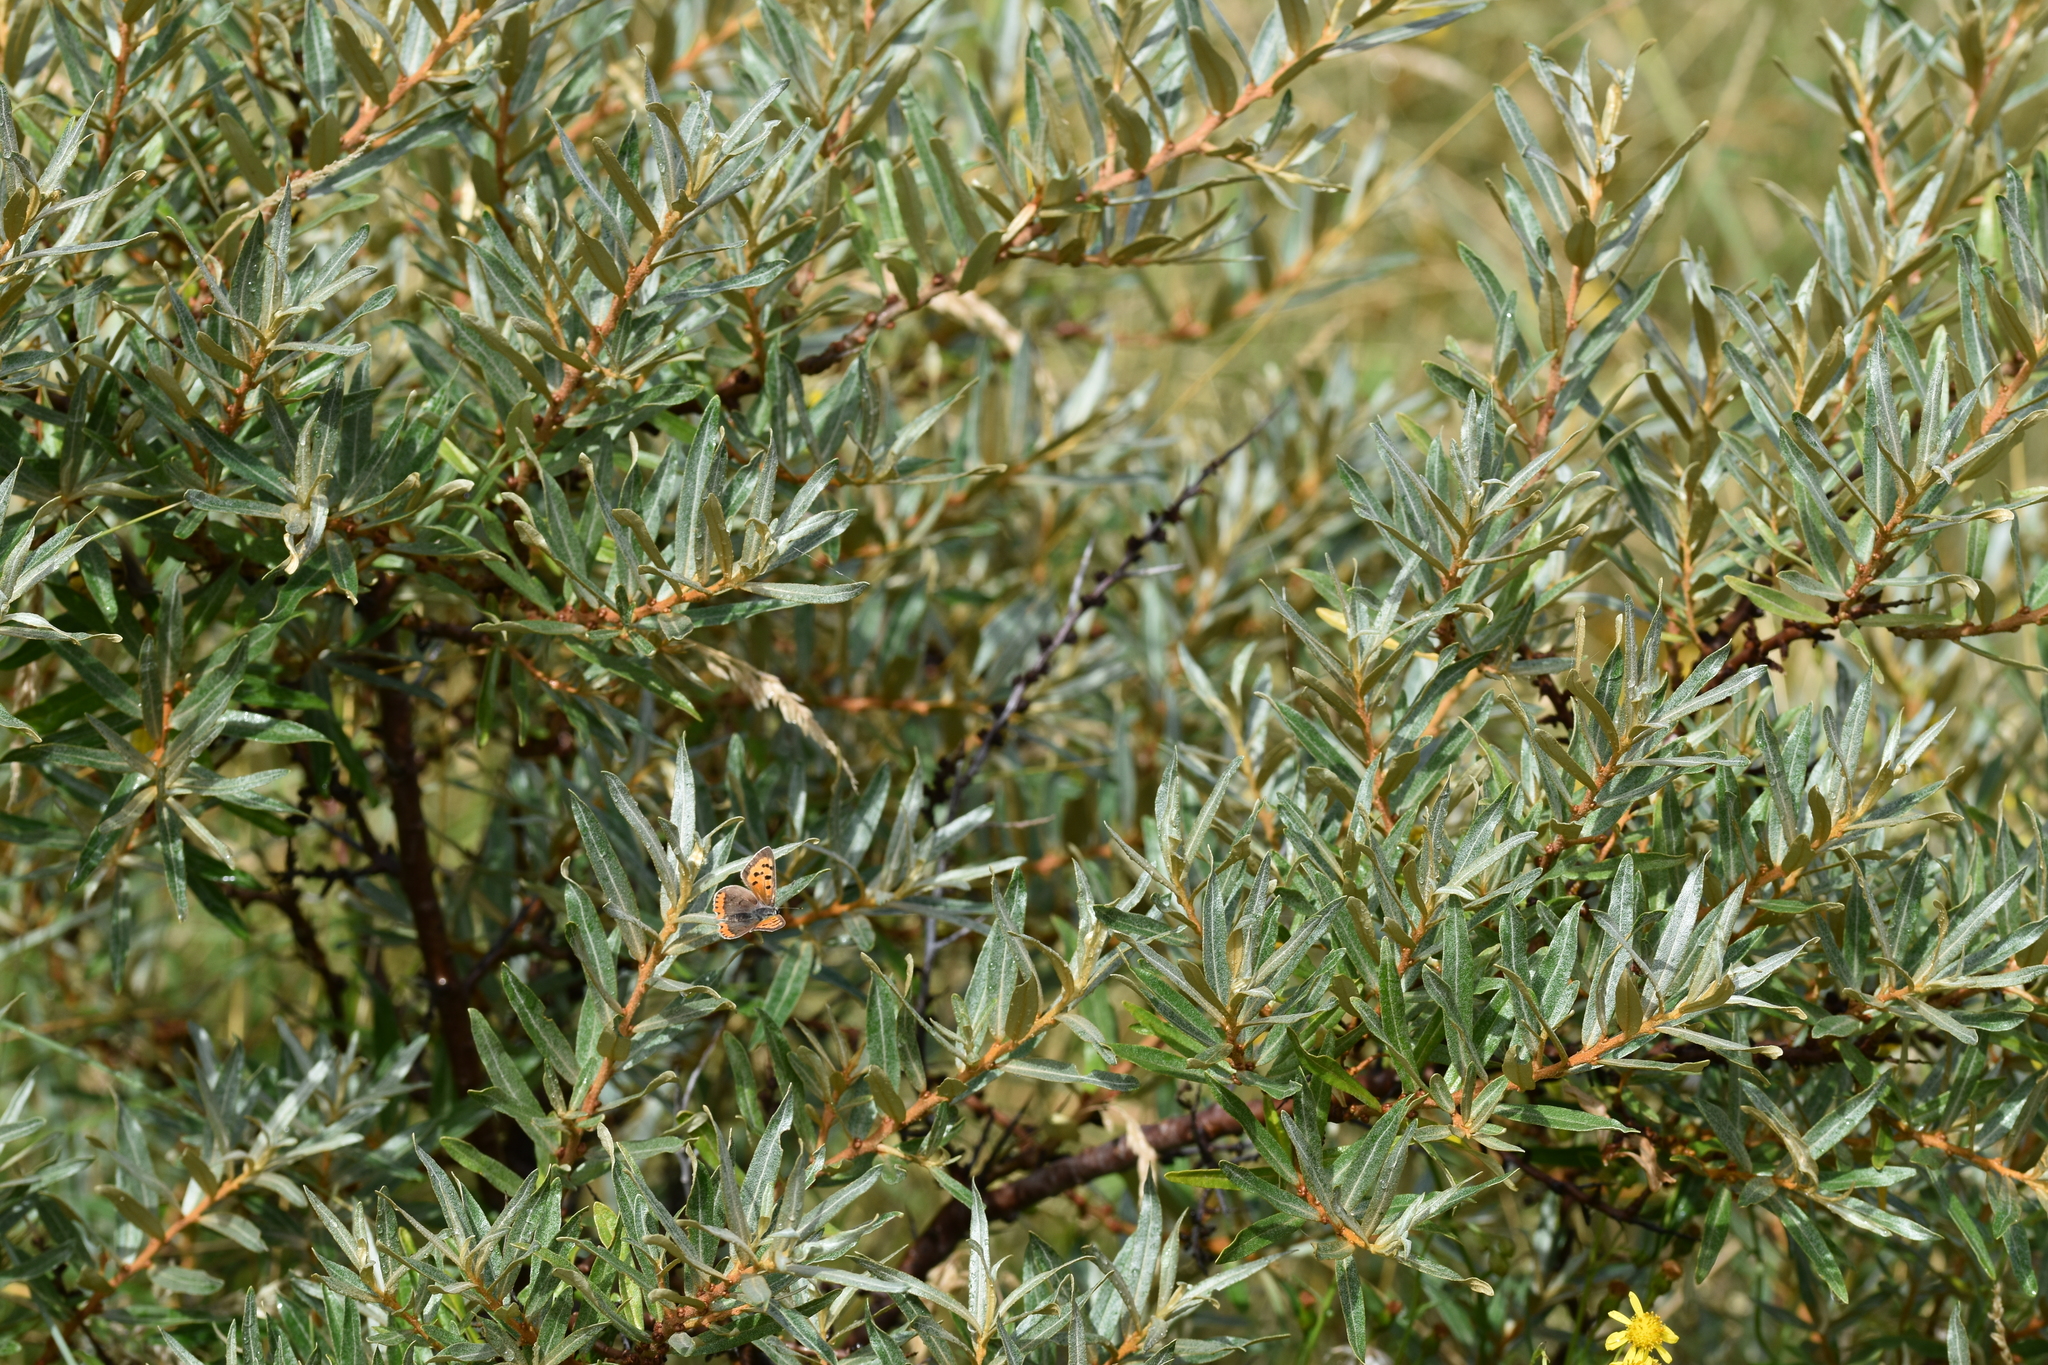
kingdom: Animalia
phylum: Arthropoda
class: Insecta
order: Lepidoptera
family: Lycaenidae
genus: Lycaena
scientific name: Lycaena phlaeas
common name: Small copper
